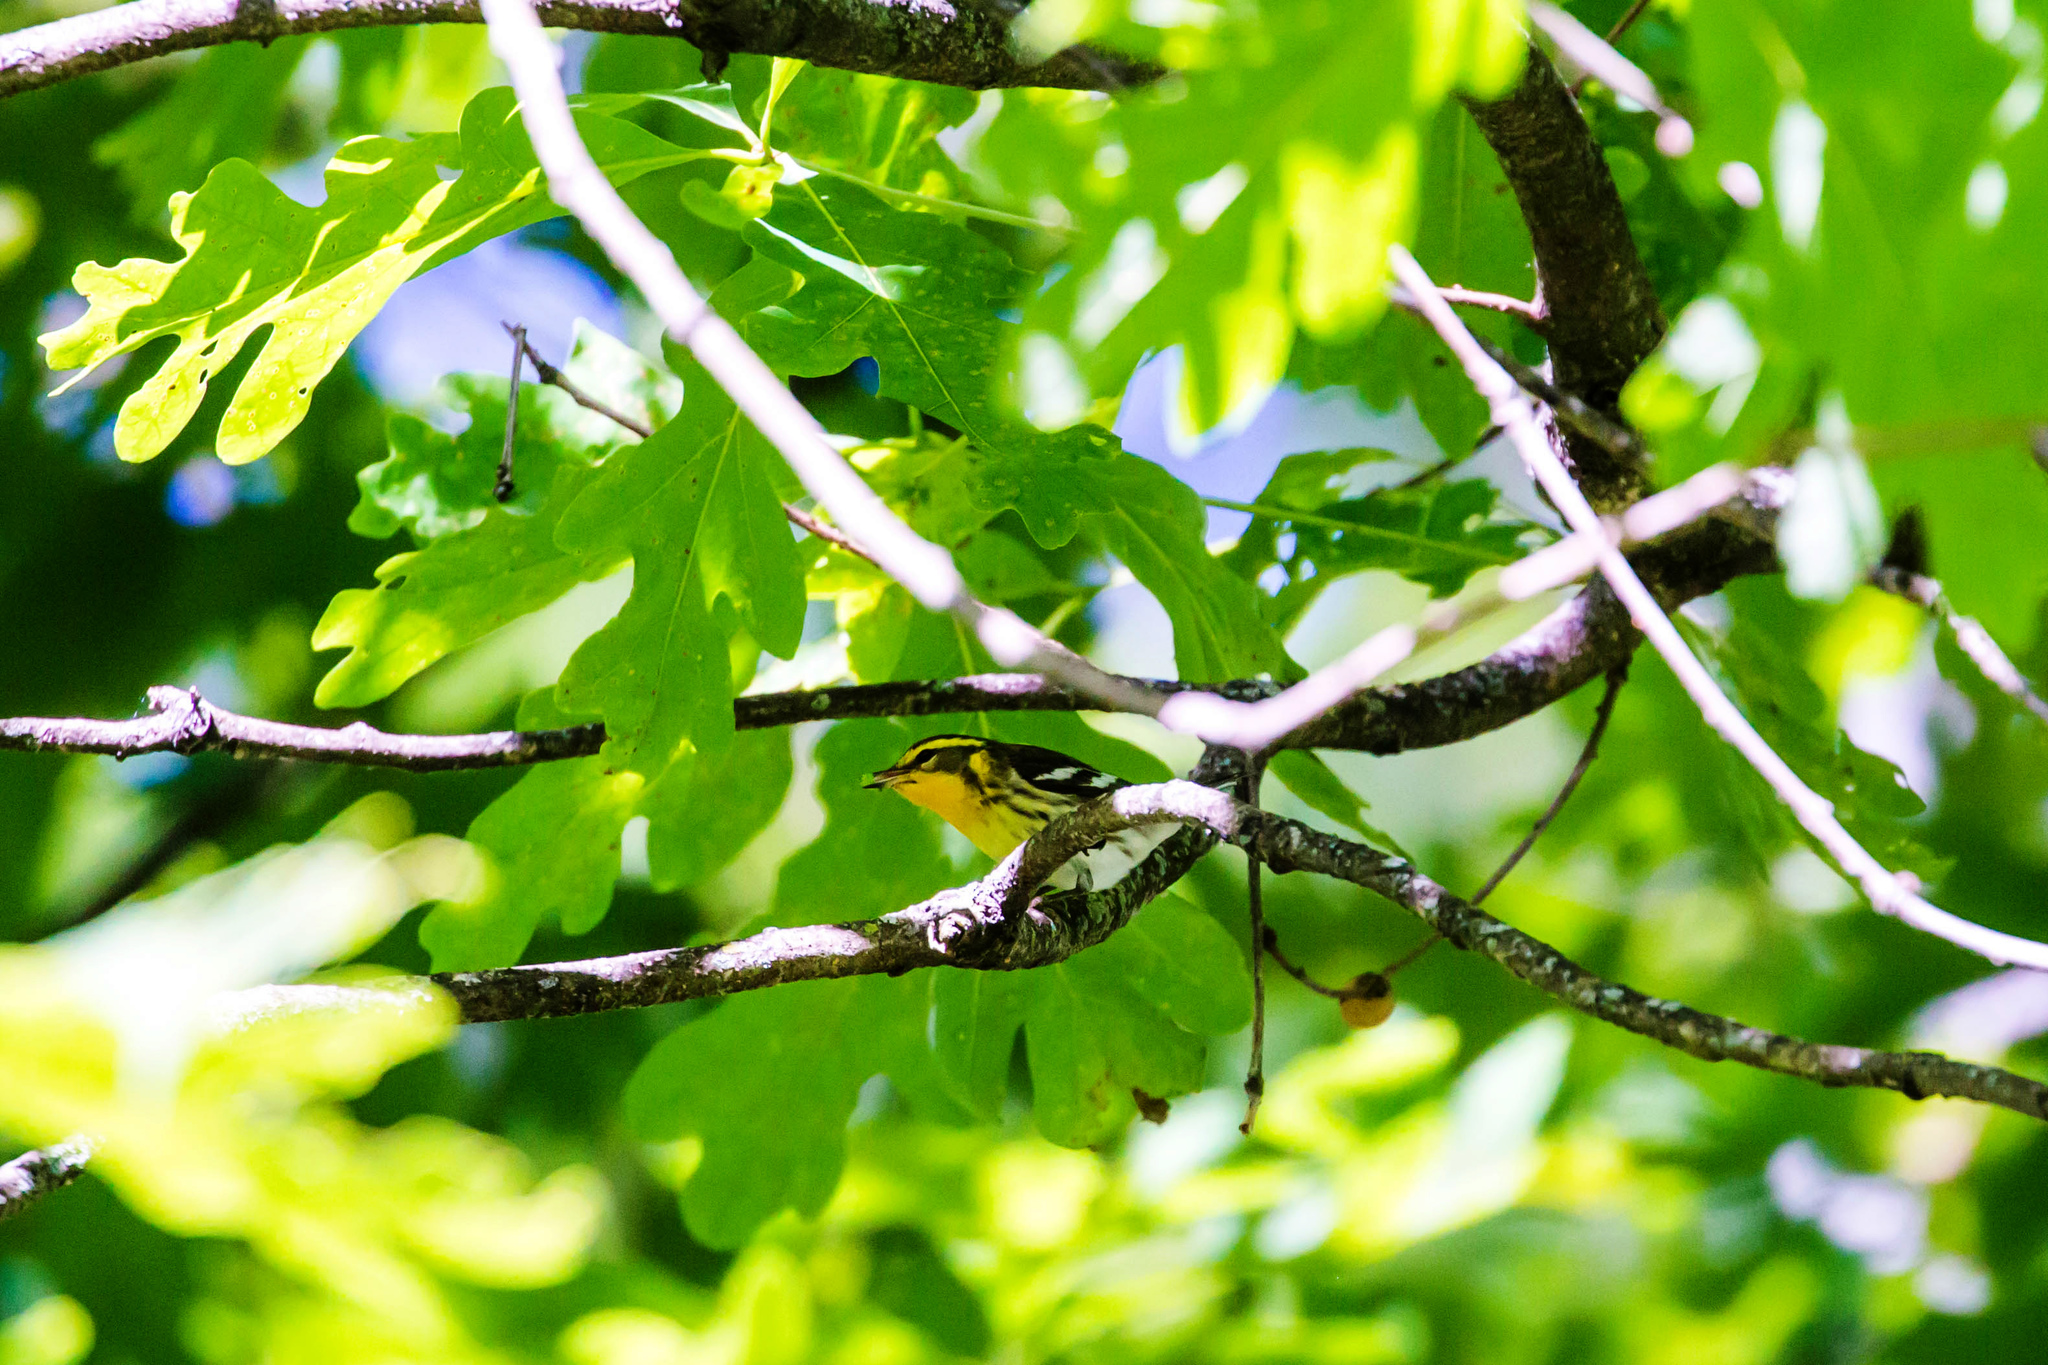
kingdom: Animalia
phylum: Chordata
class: Aves
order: Passeriformes
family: Parulidae
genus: Setophaga
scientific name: Setophaga fusca
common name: Blackburnian warbler
